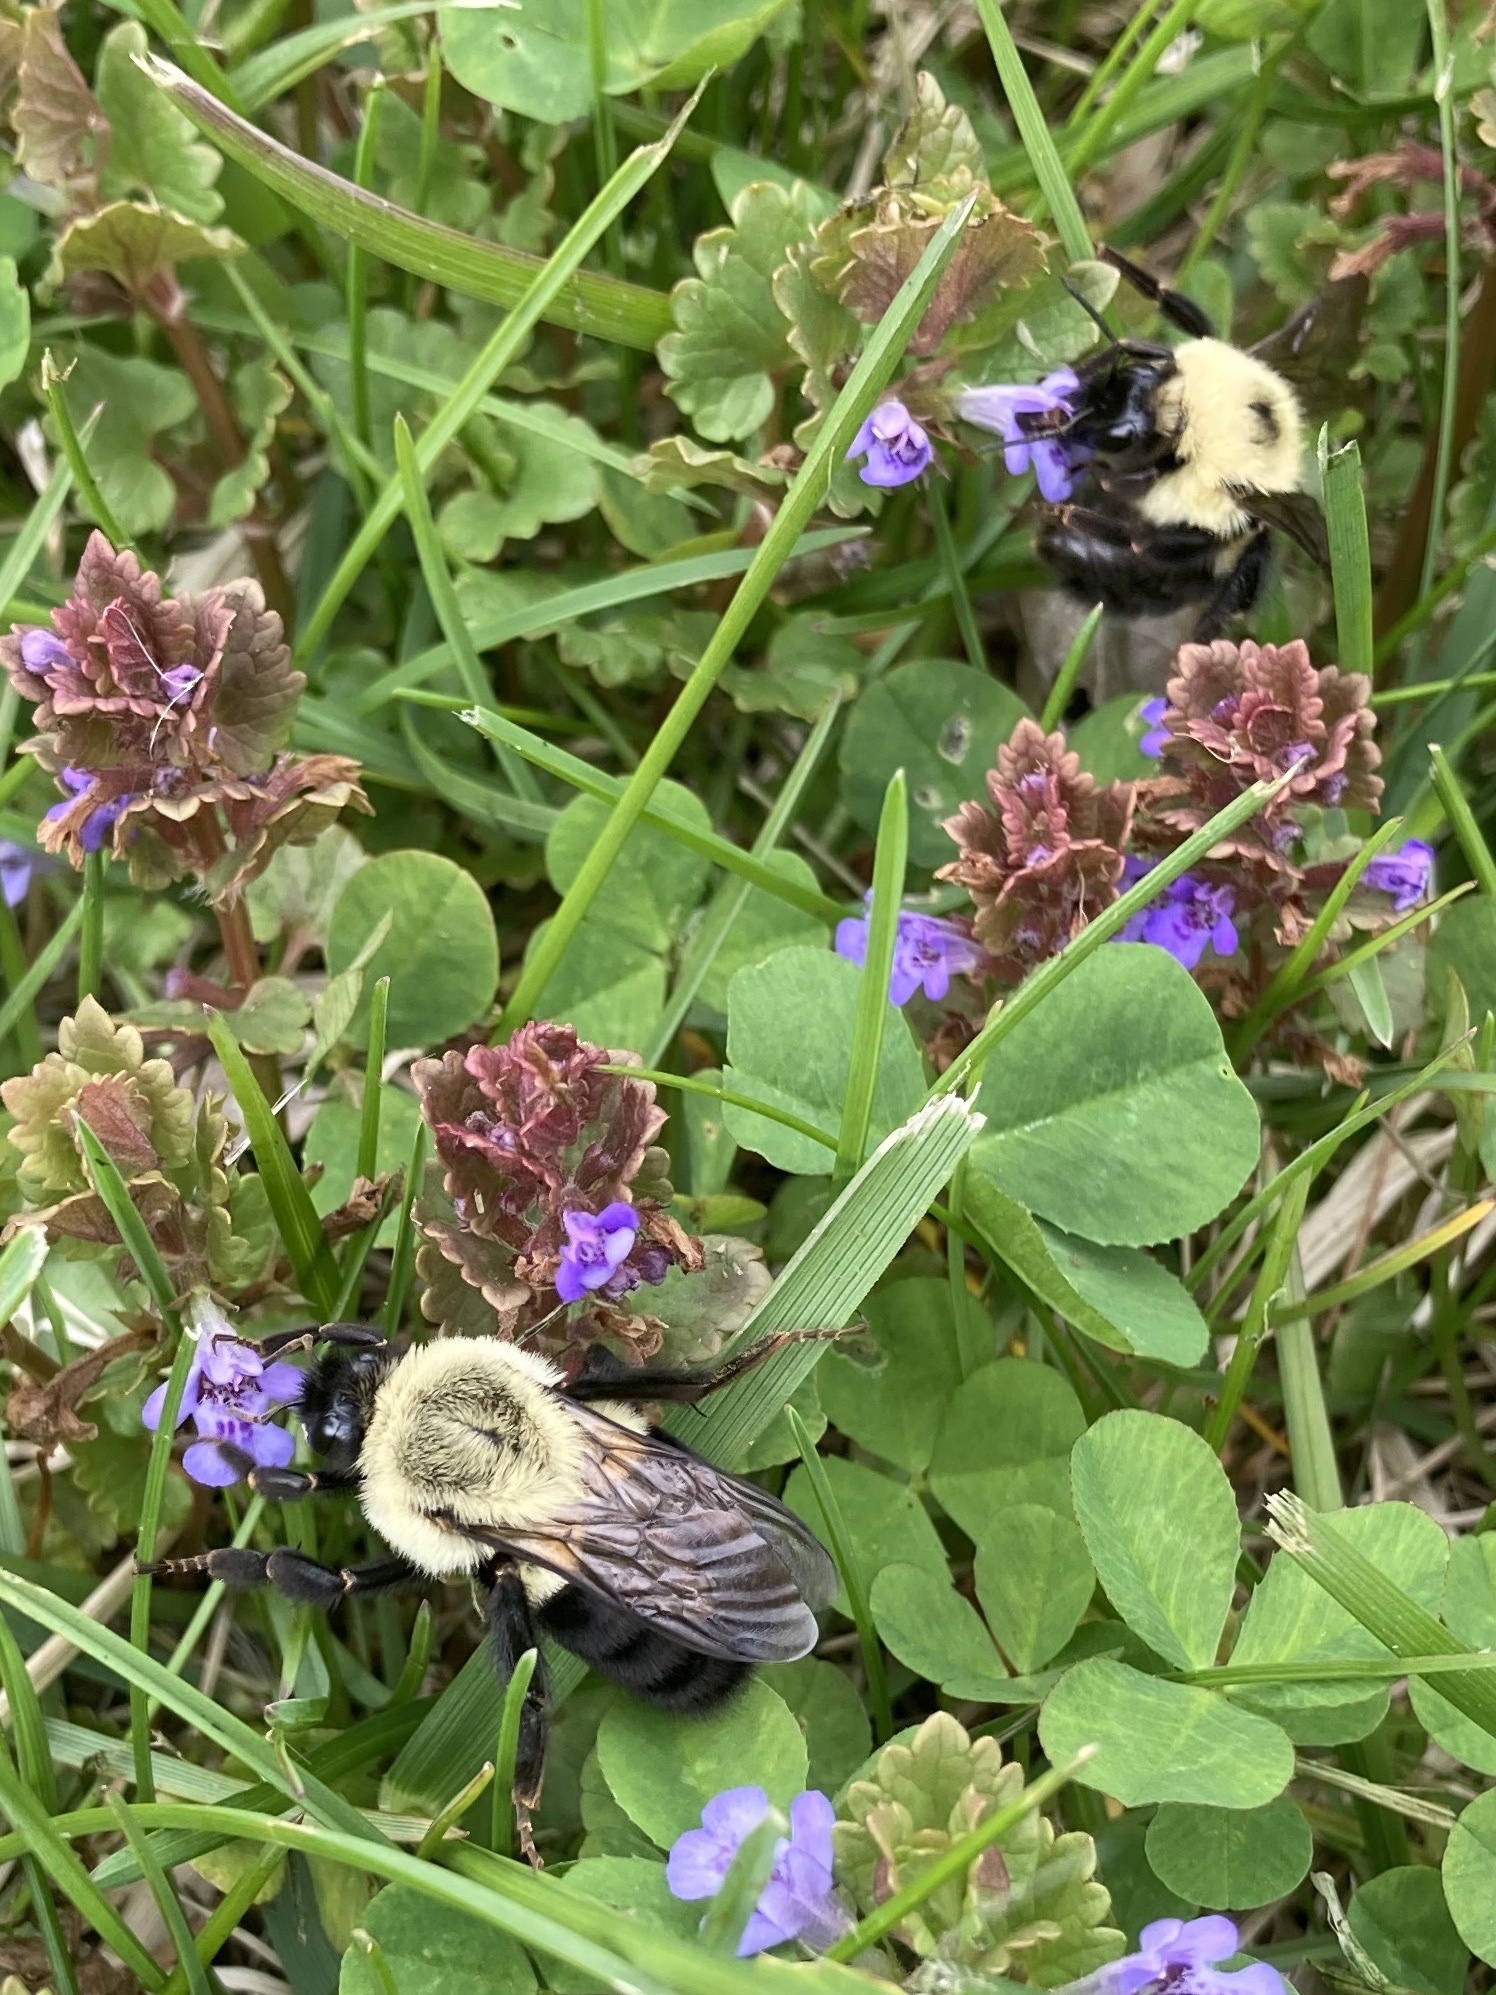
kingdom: Animalia
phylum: Arthropoda
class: Insecta
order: Hymenoptera
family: Apidae
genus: Bombus
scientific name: Bombus impatiens
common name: Common eastern bumble bee
